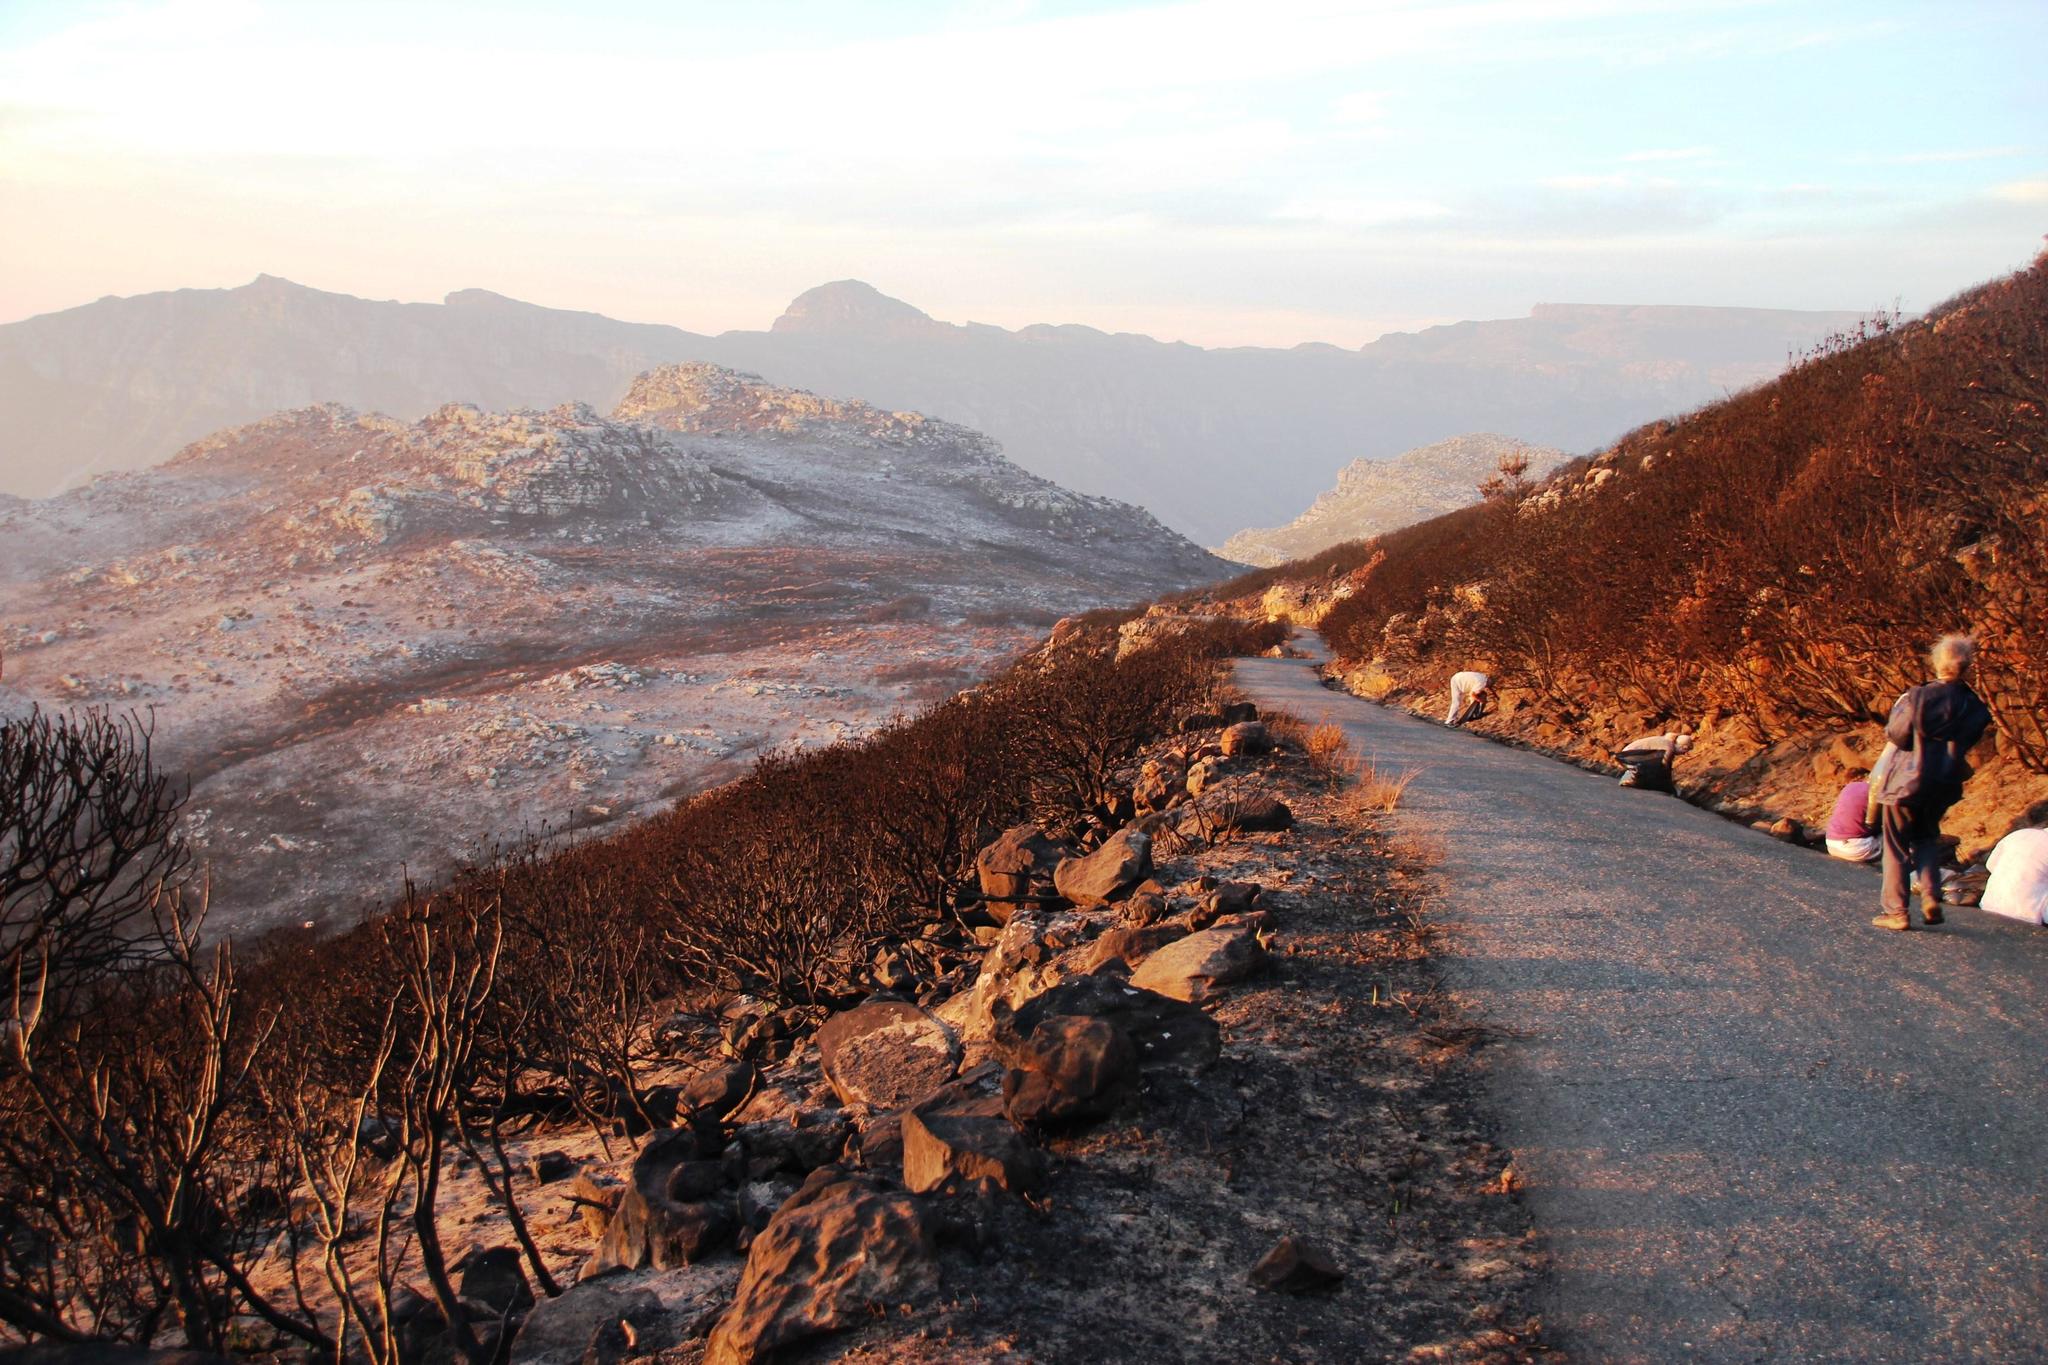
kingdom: Plantae
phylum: Tracheophyta
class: Magnoliopsida
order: Proteales
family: Proteaceae
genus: Protea
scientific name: Protea lepidocarpodendron
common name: Black-bearded protea
